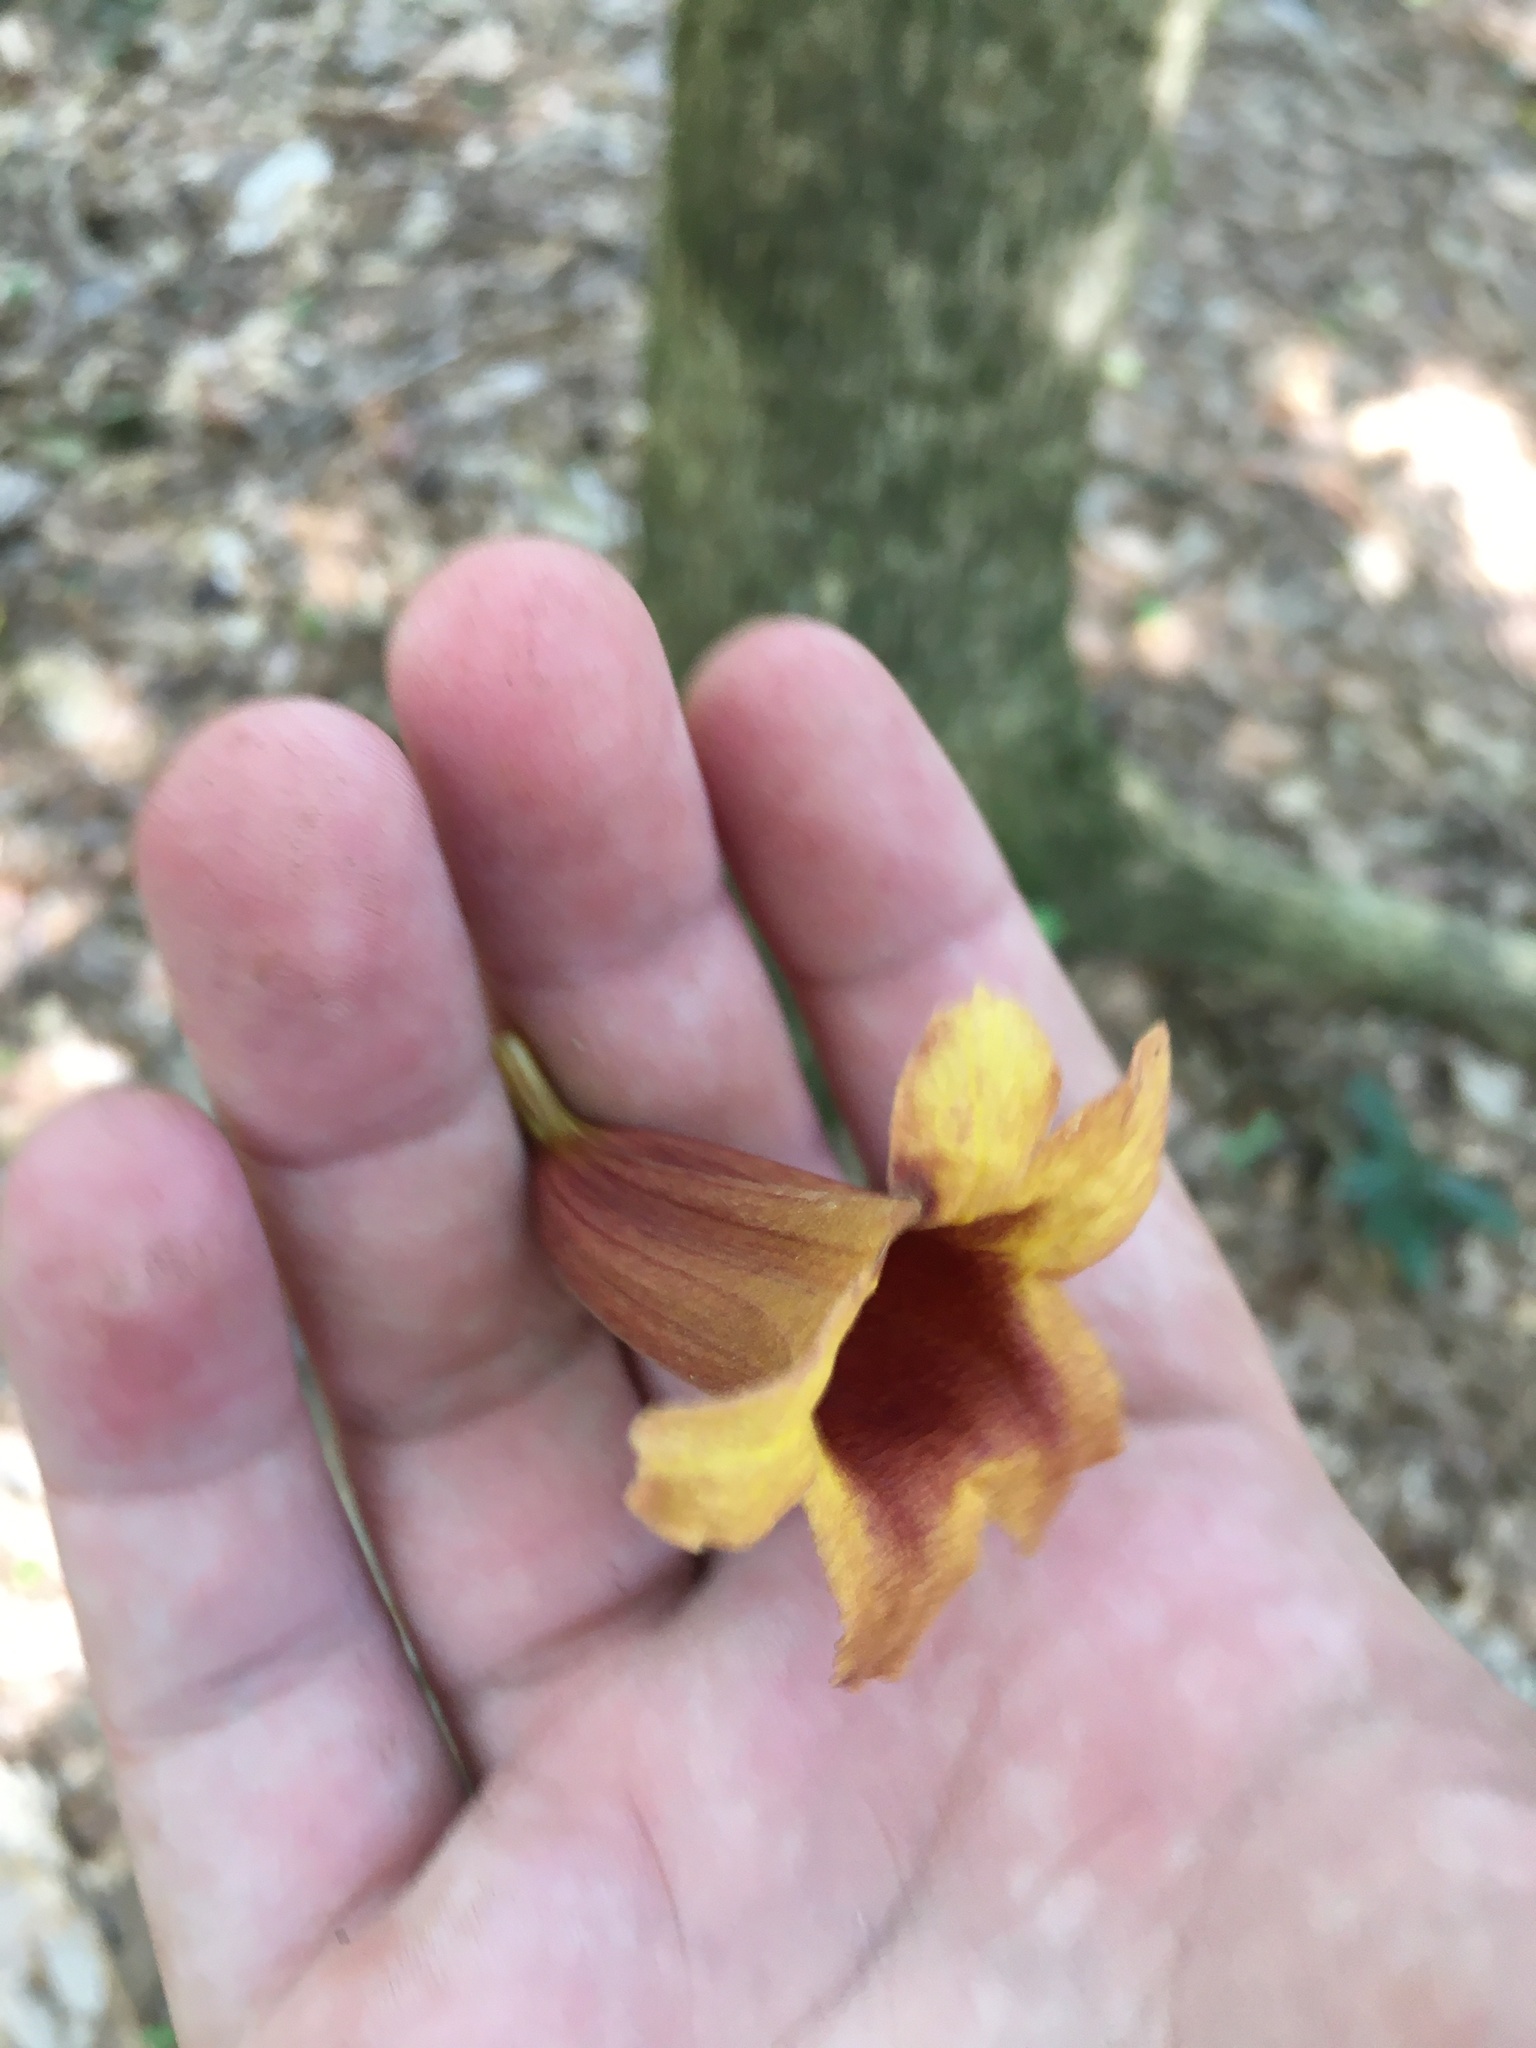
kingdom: Plantae
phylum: Tracheophyta
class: Magnoliopsida
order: Lamiales
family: Bignoniaceae
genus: Bignonia
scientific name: Bignonia capreolata
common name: Crossvine
